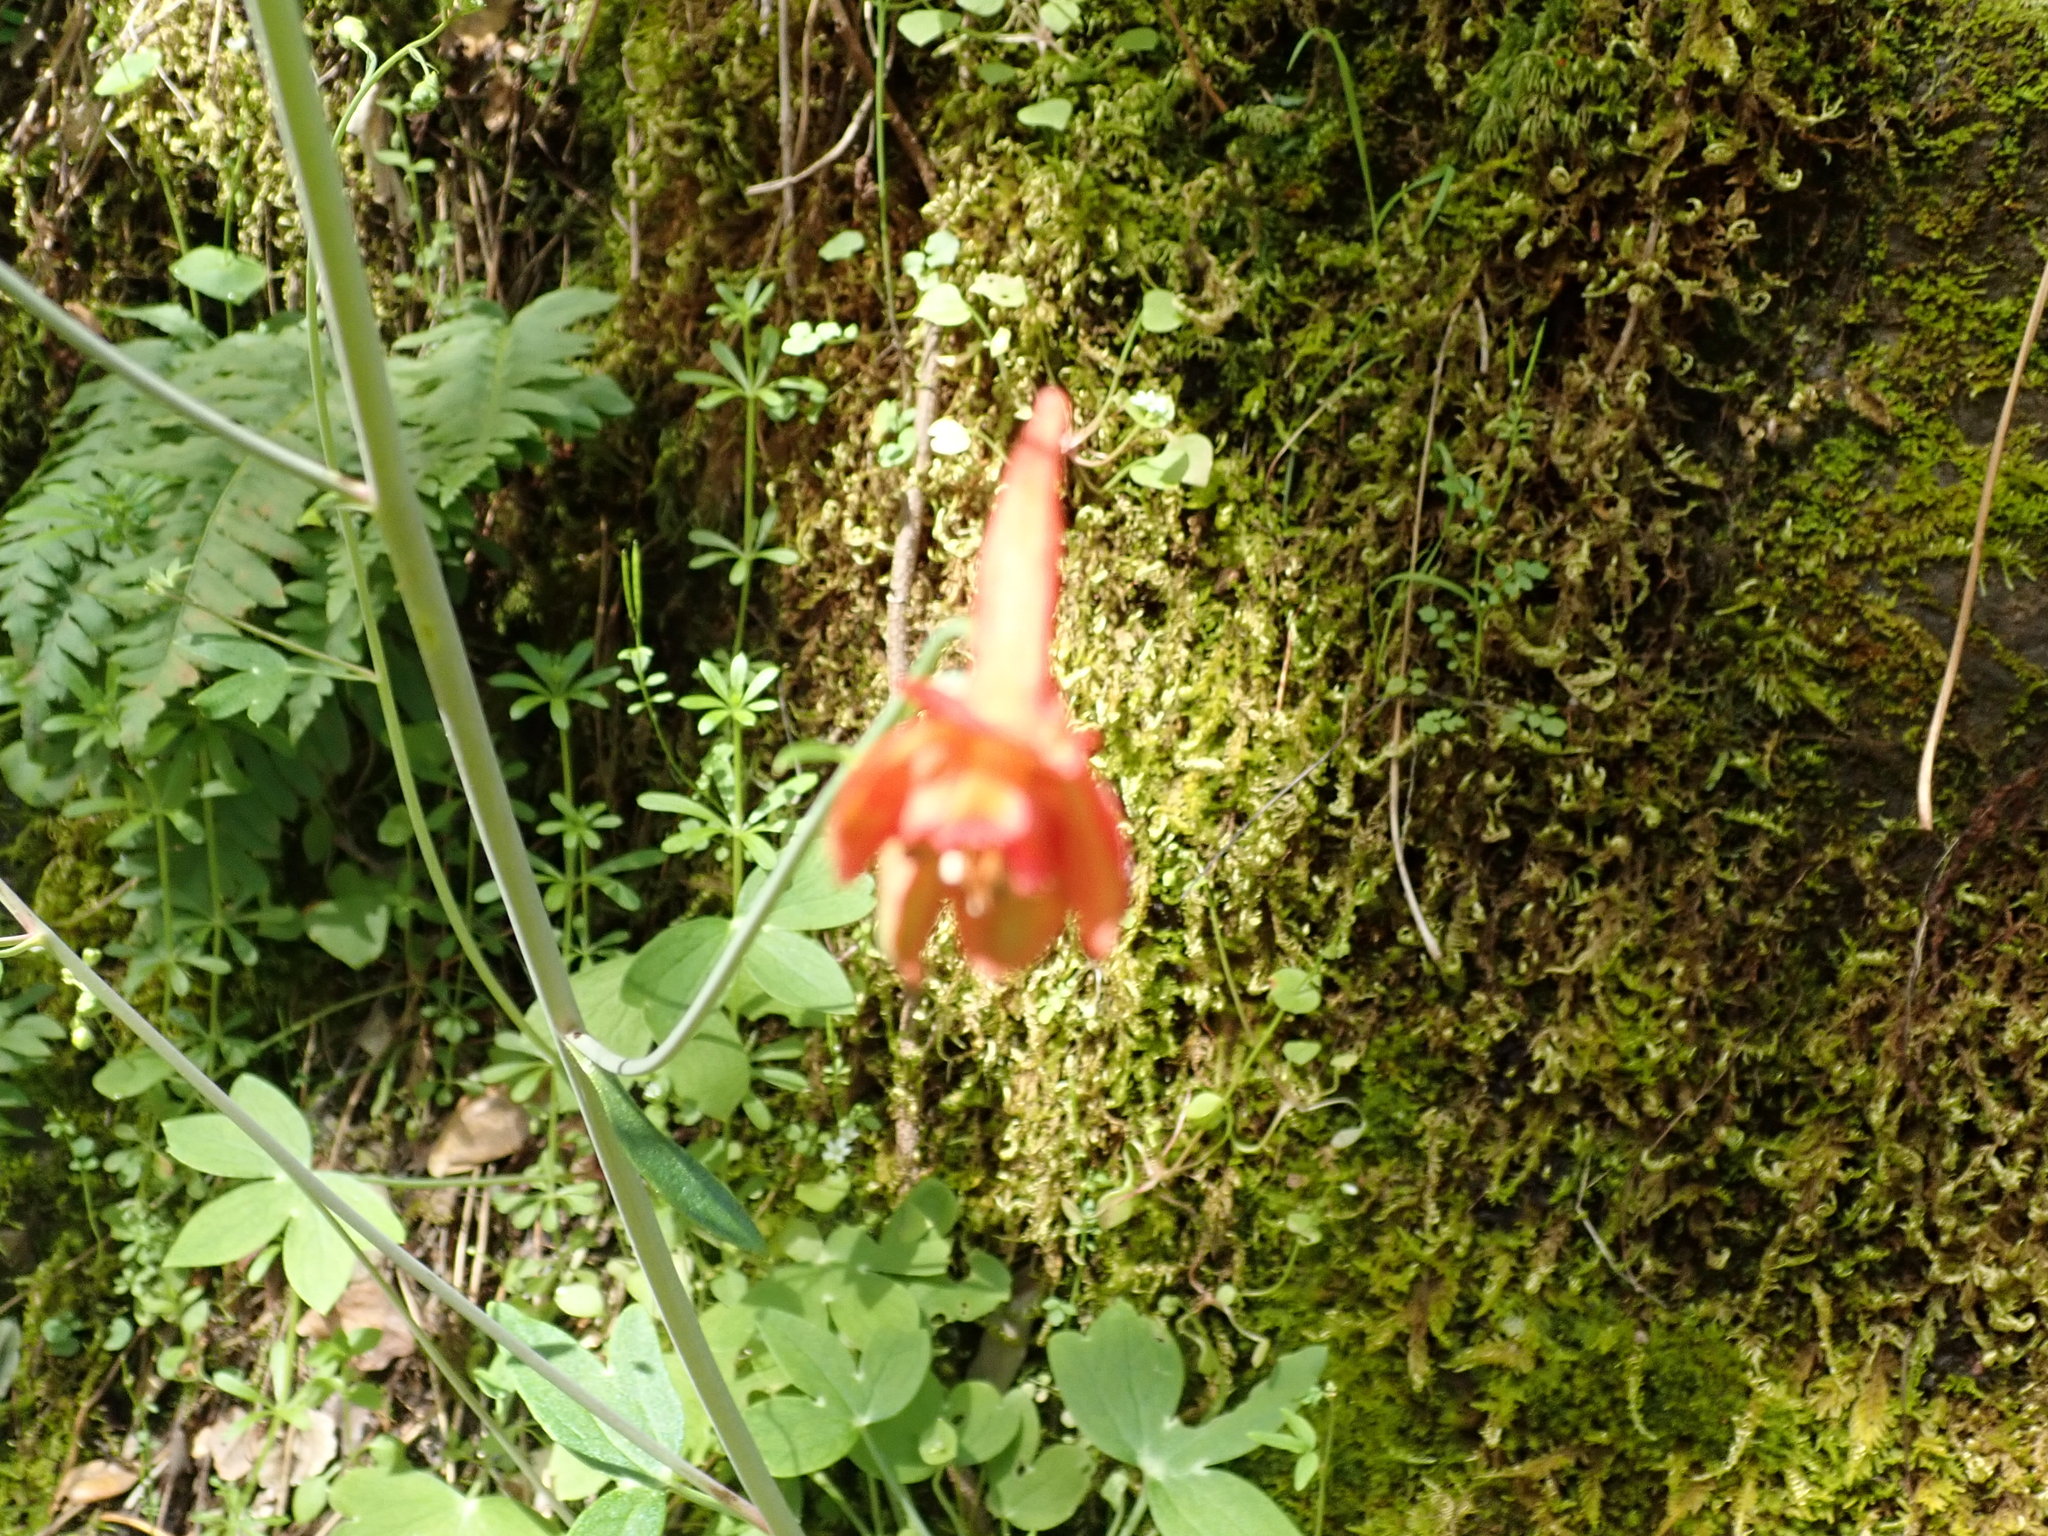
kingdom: Plantae
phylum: Tracheophyta
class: Magnoliopsida
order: Ranunculales
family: Ranunculaceae
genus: Delphinium
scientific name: Delphinium nudicaule
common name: Red larkspur
